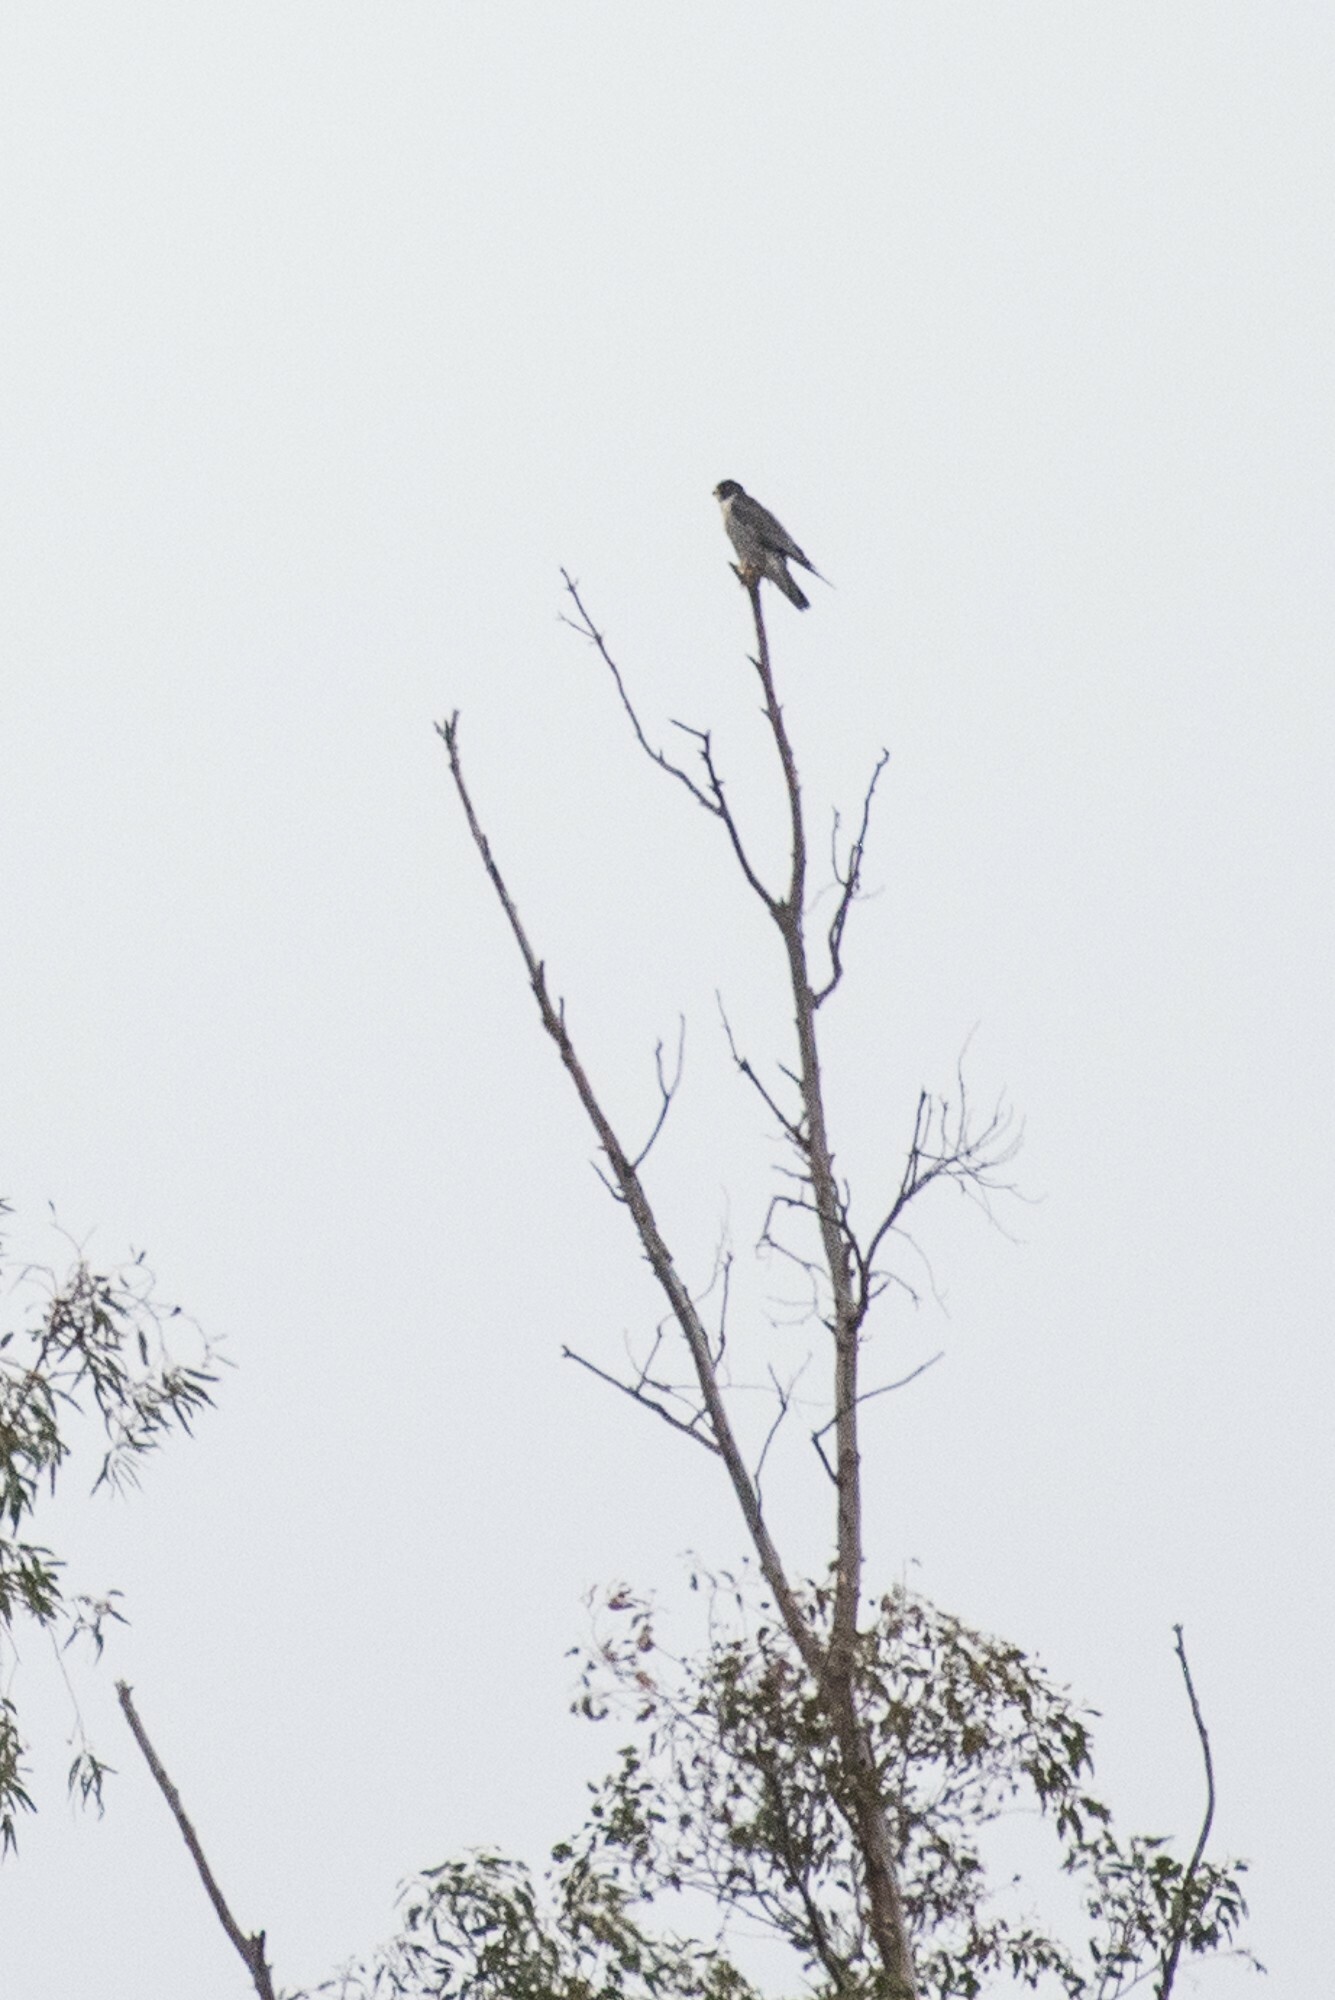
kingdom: Animalia
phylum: Chordata
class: Aves
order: Falconiformes
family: Falconidae
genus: Falco
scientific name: Falco peregrinus
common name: Peregrine falcon
